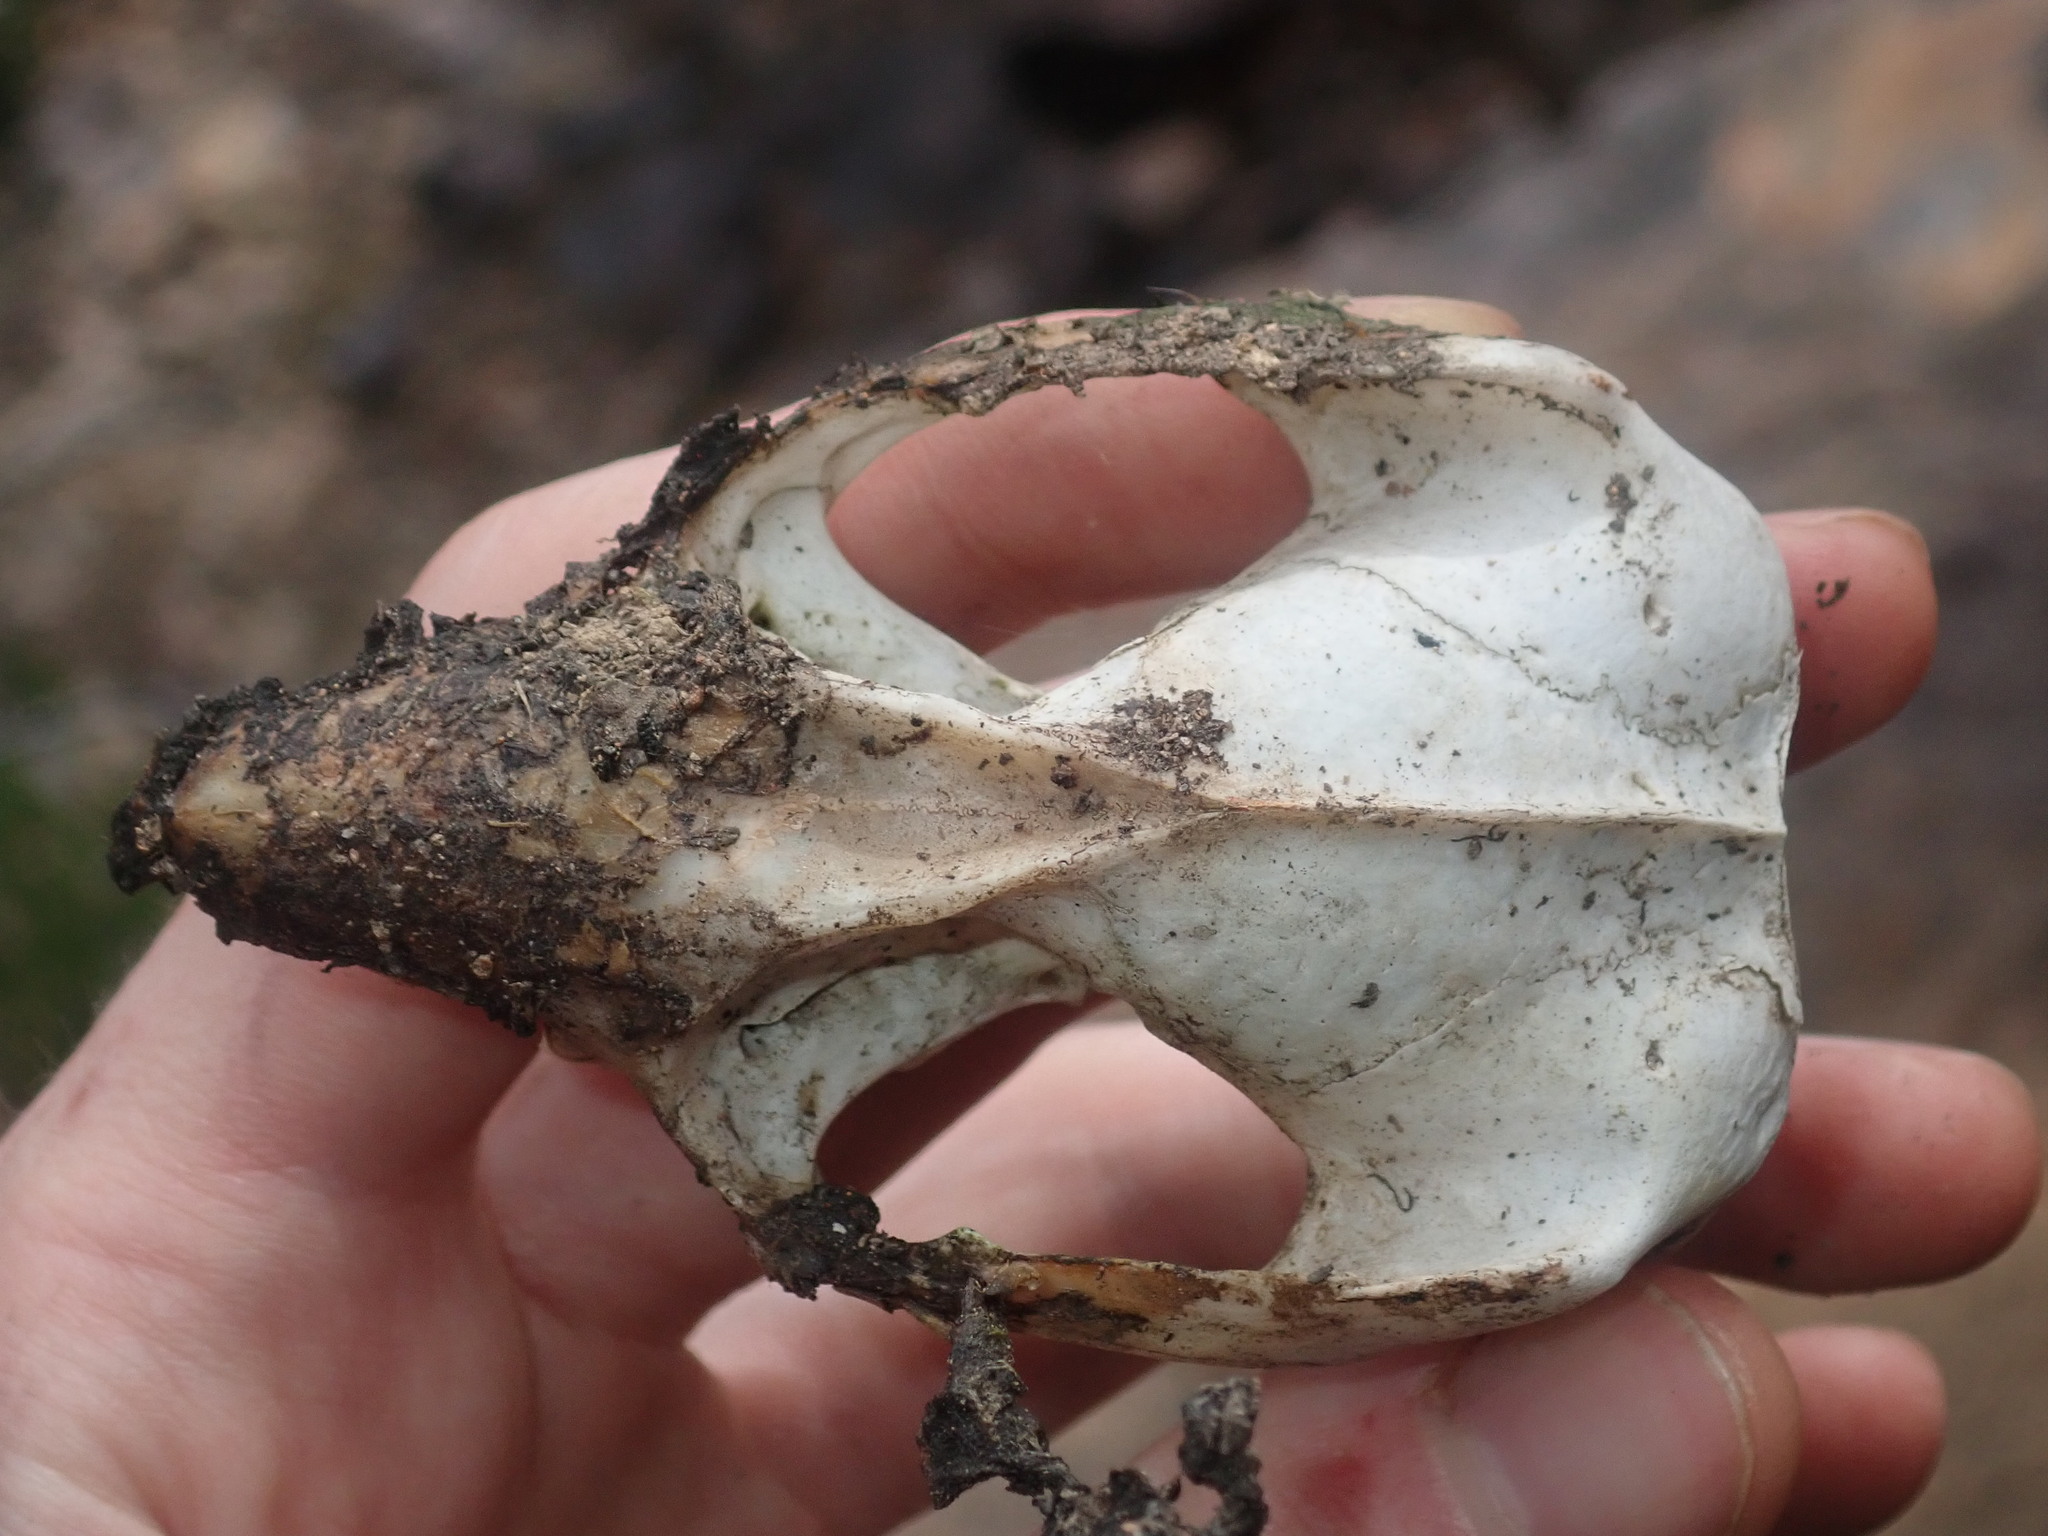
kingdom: Animalia
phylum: Chordata
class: Mammalia
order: Diprotodontia
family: Phalangeridae
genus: Trichosurus
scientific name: Trichosurus vulpecula
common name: Common brushtail
